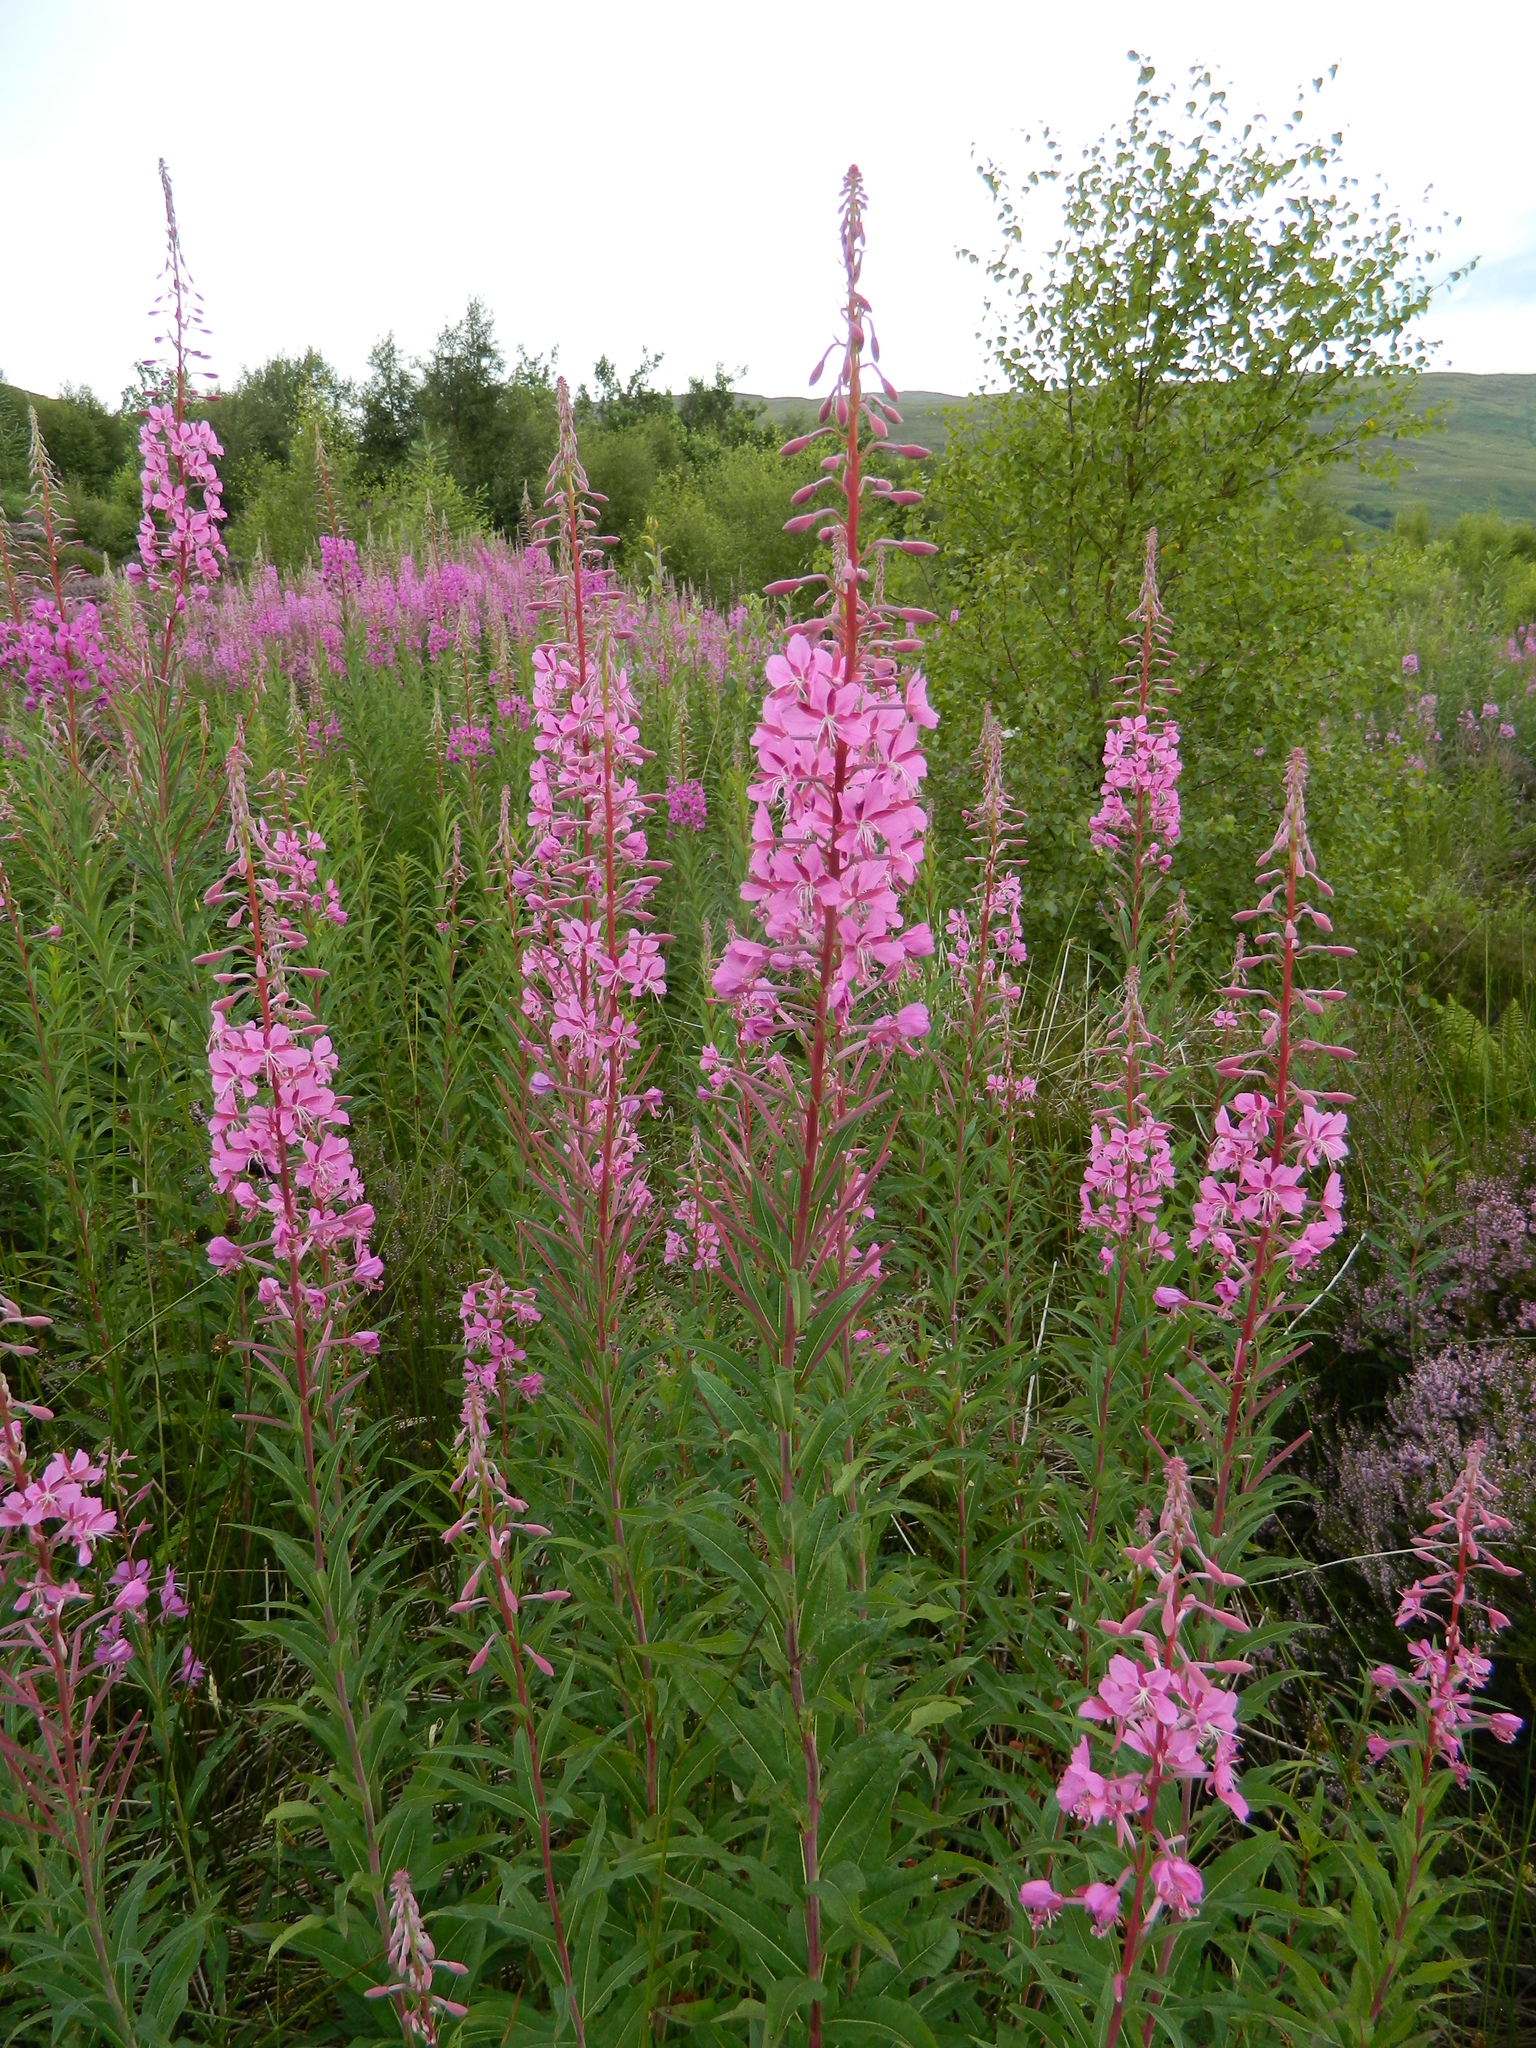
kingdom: Plantae
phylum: Tracheophyta
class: Magnoliopsida
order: Myrtales
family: Onagraceae
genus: Chamaenerion
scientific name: Chamaenerion angustifolium
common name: Fireweed
